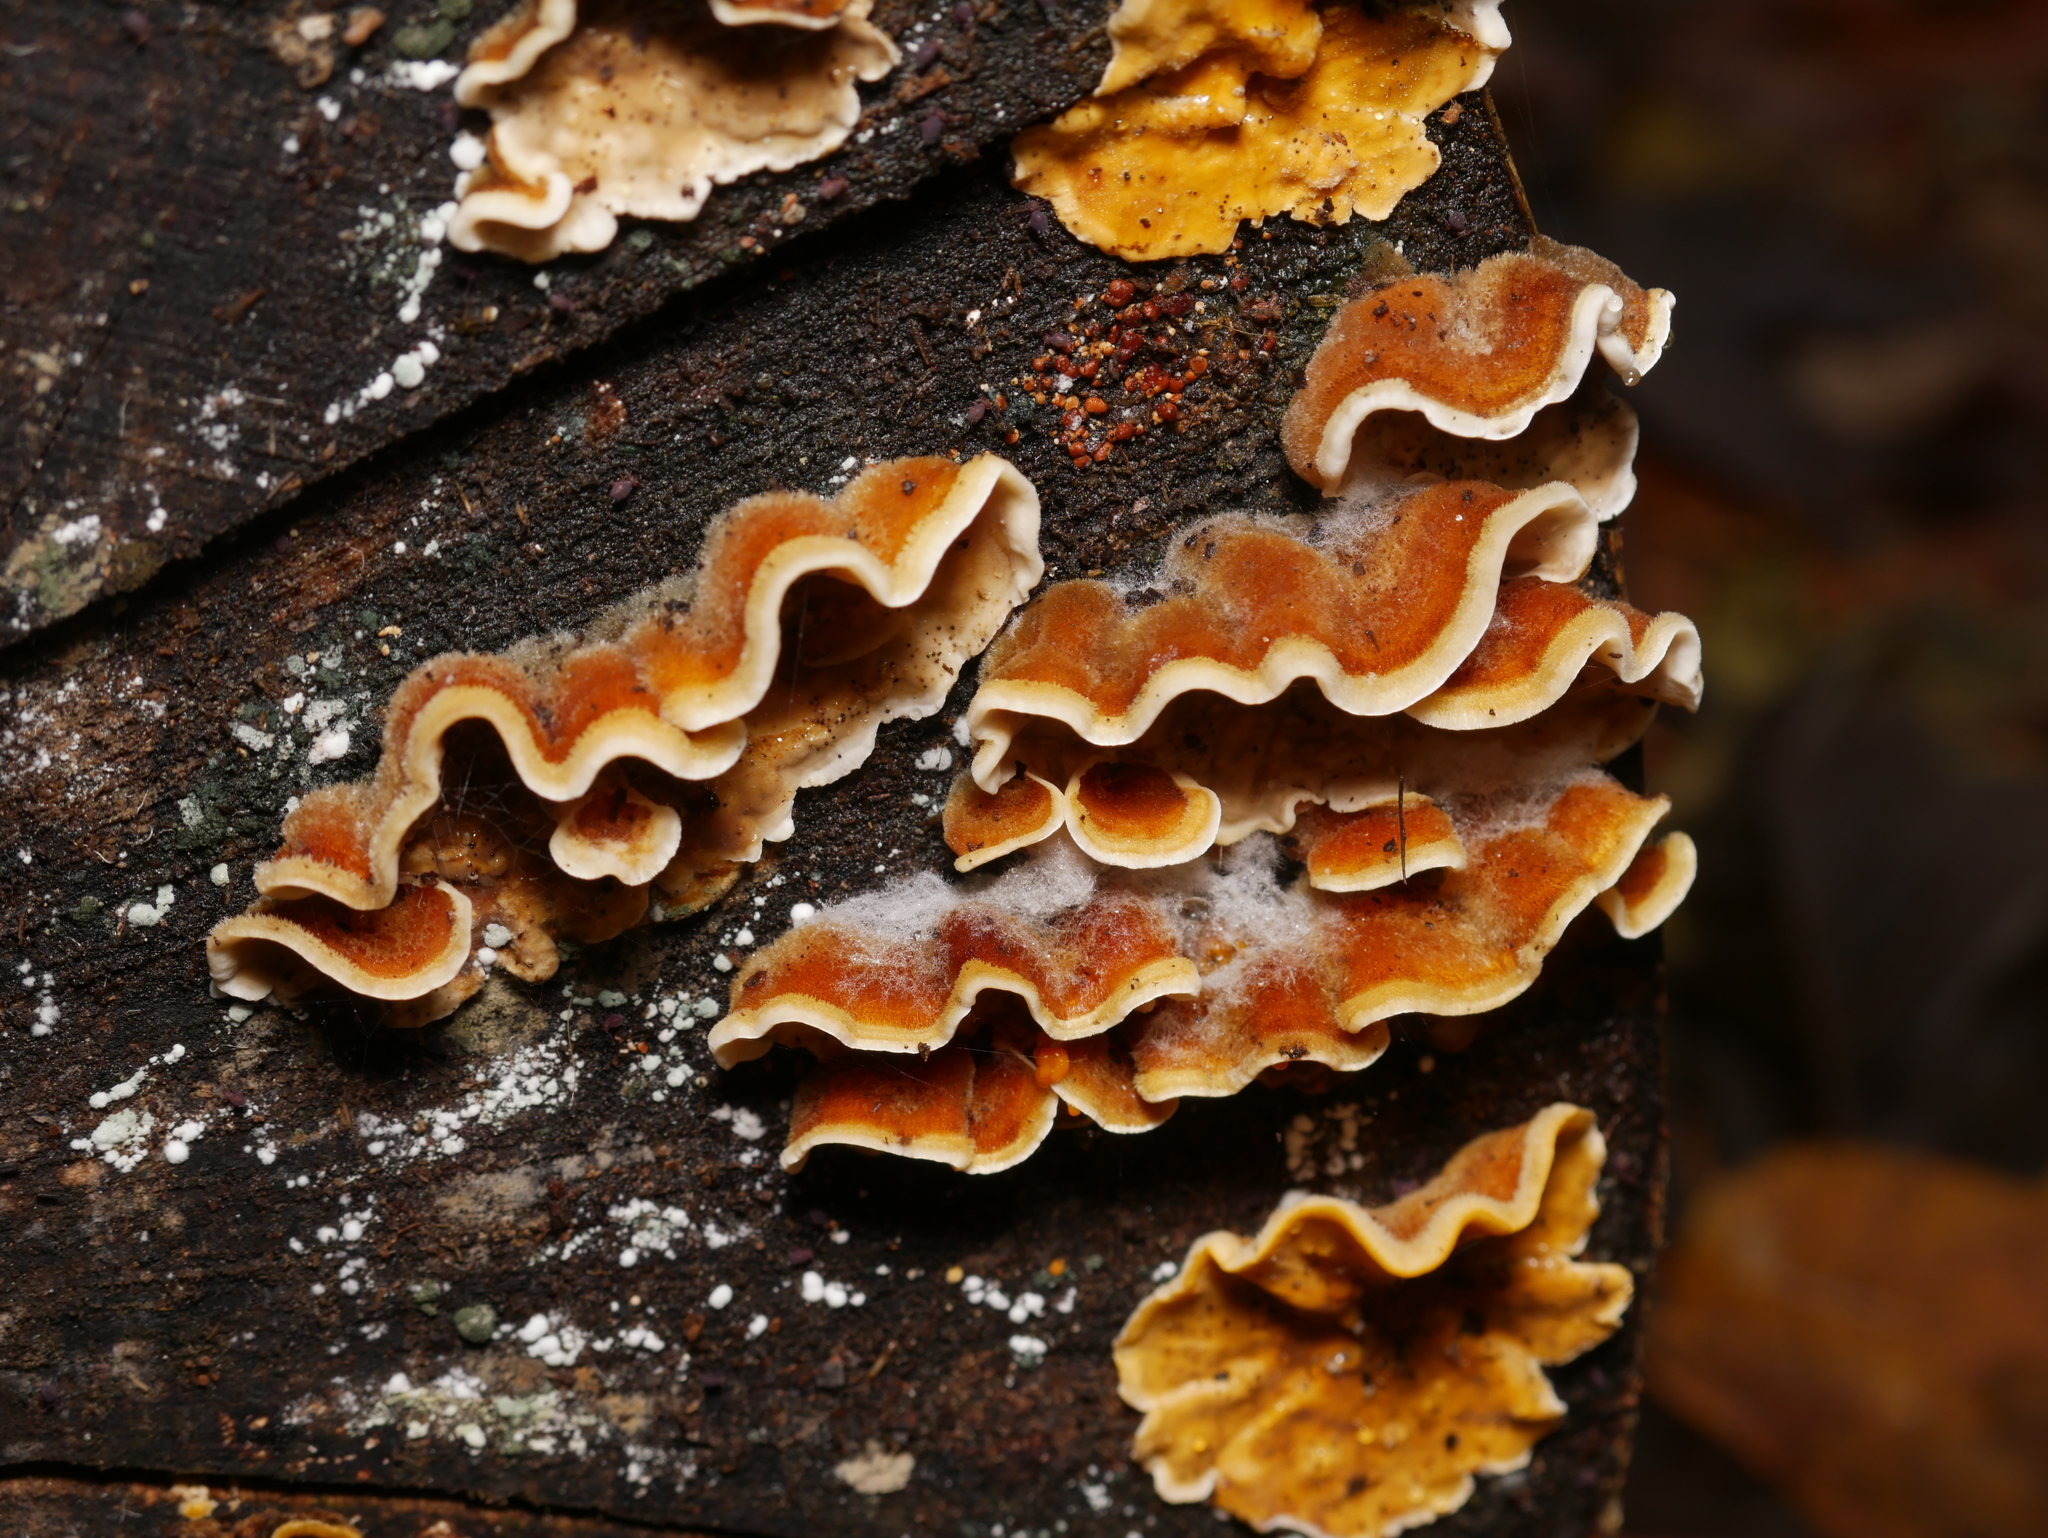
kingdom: Fungi
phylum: Basidiomycota
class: Agaricomycetes
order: Russulales
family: Stereaceae
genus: Stereum
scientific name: Stereum hirsutum
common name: Hairy curtain crust
